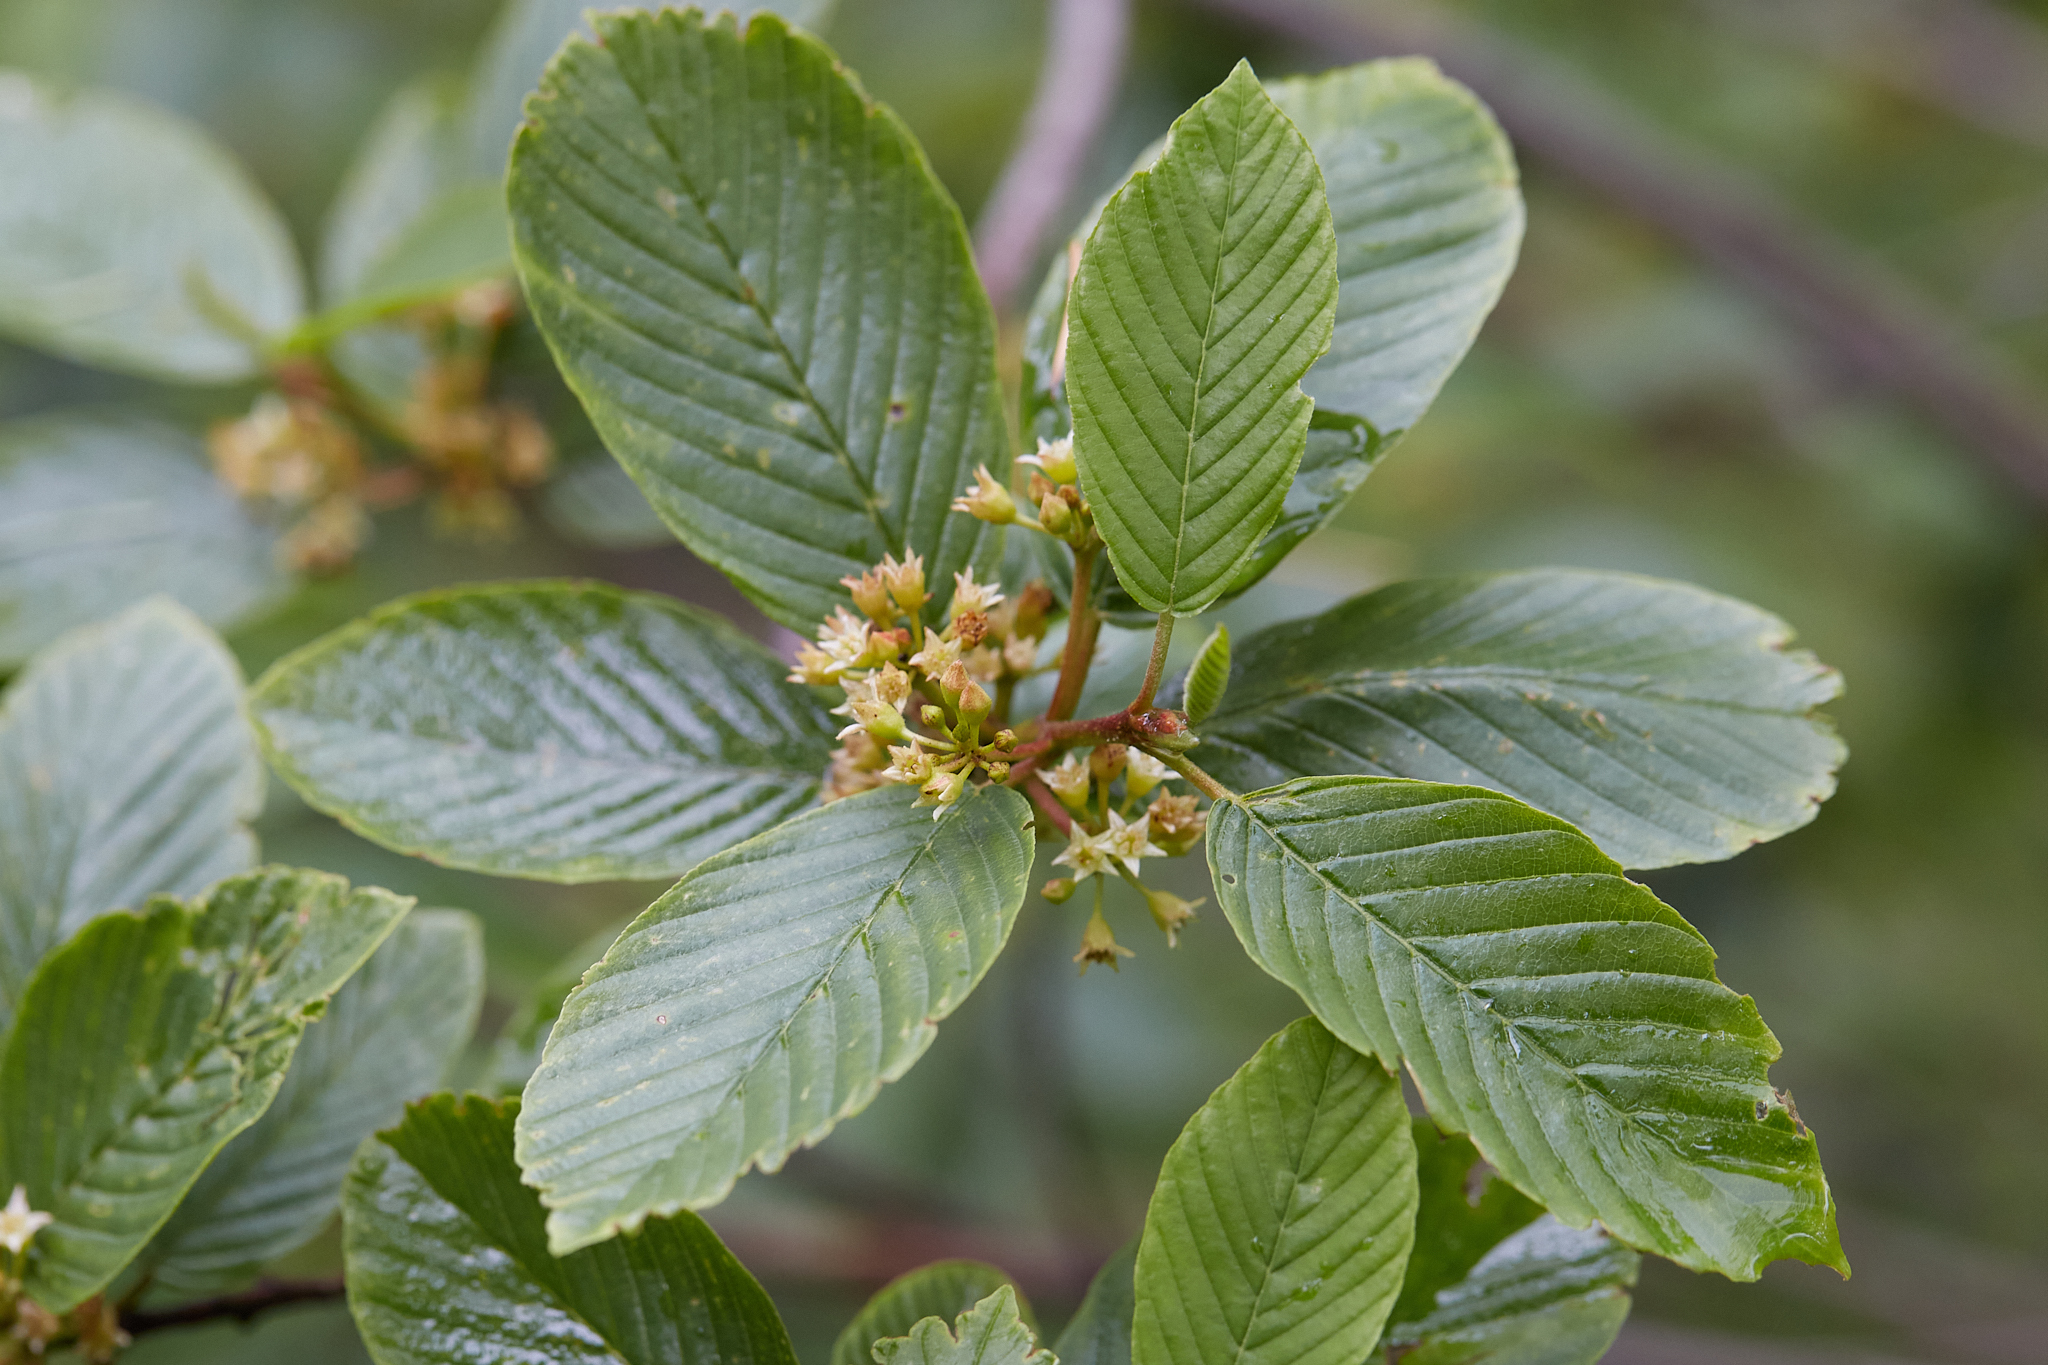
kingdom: Plantae
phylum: Tracheophyta
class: Magnoliopsida
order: Rosales
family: Rhamnaceae
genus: Frangula
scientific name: Frangula purshiana
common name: Cascara buckthorn
